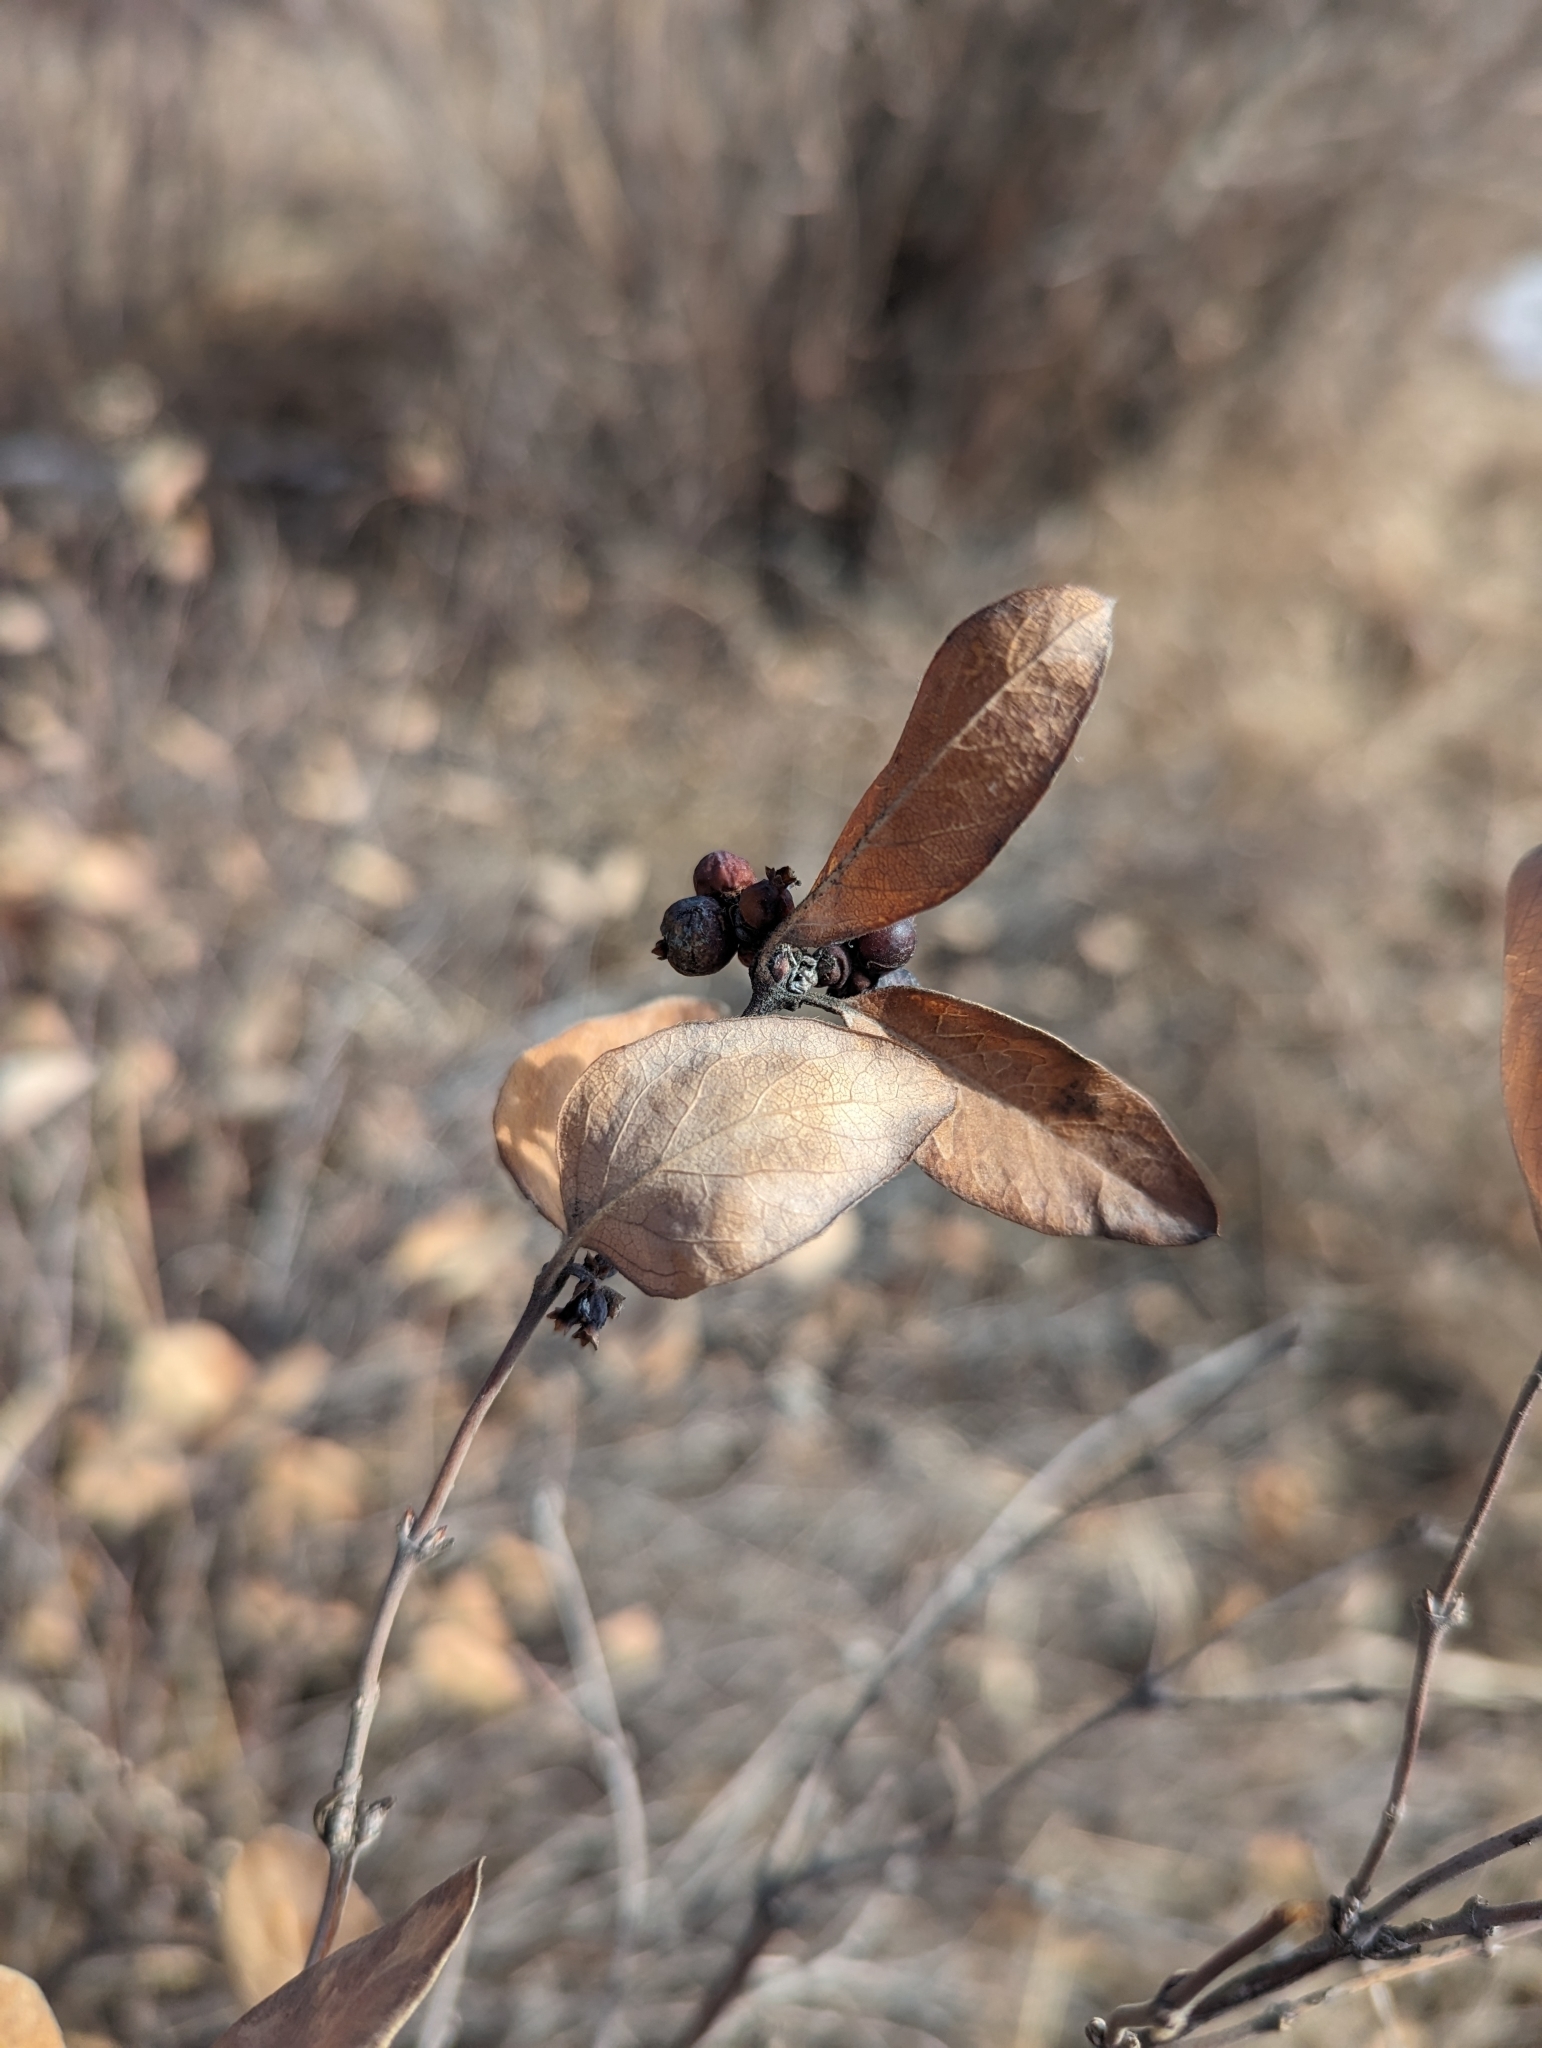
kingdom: Plantae
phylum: Tracheophyta
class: Magnoliopsida
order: Dipsacales
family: Caprifoliaceae
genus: Symphoricarpos
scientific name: Symphoricarpos occidentalis
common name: Wolfberry
